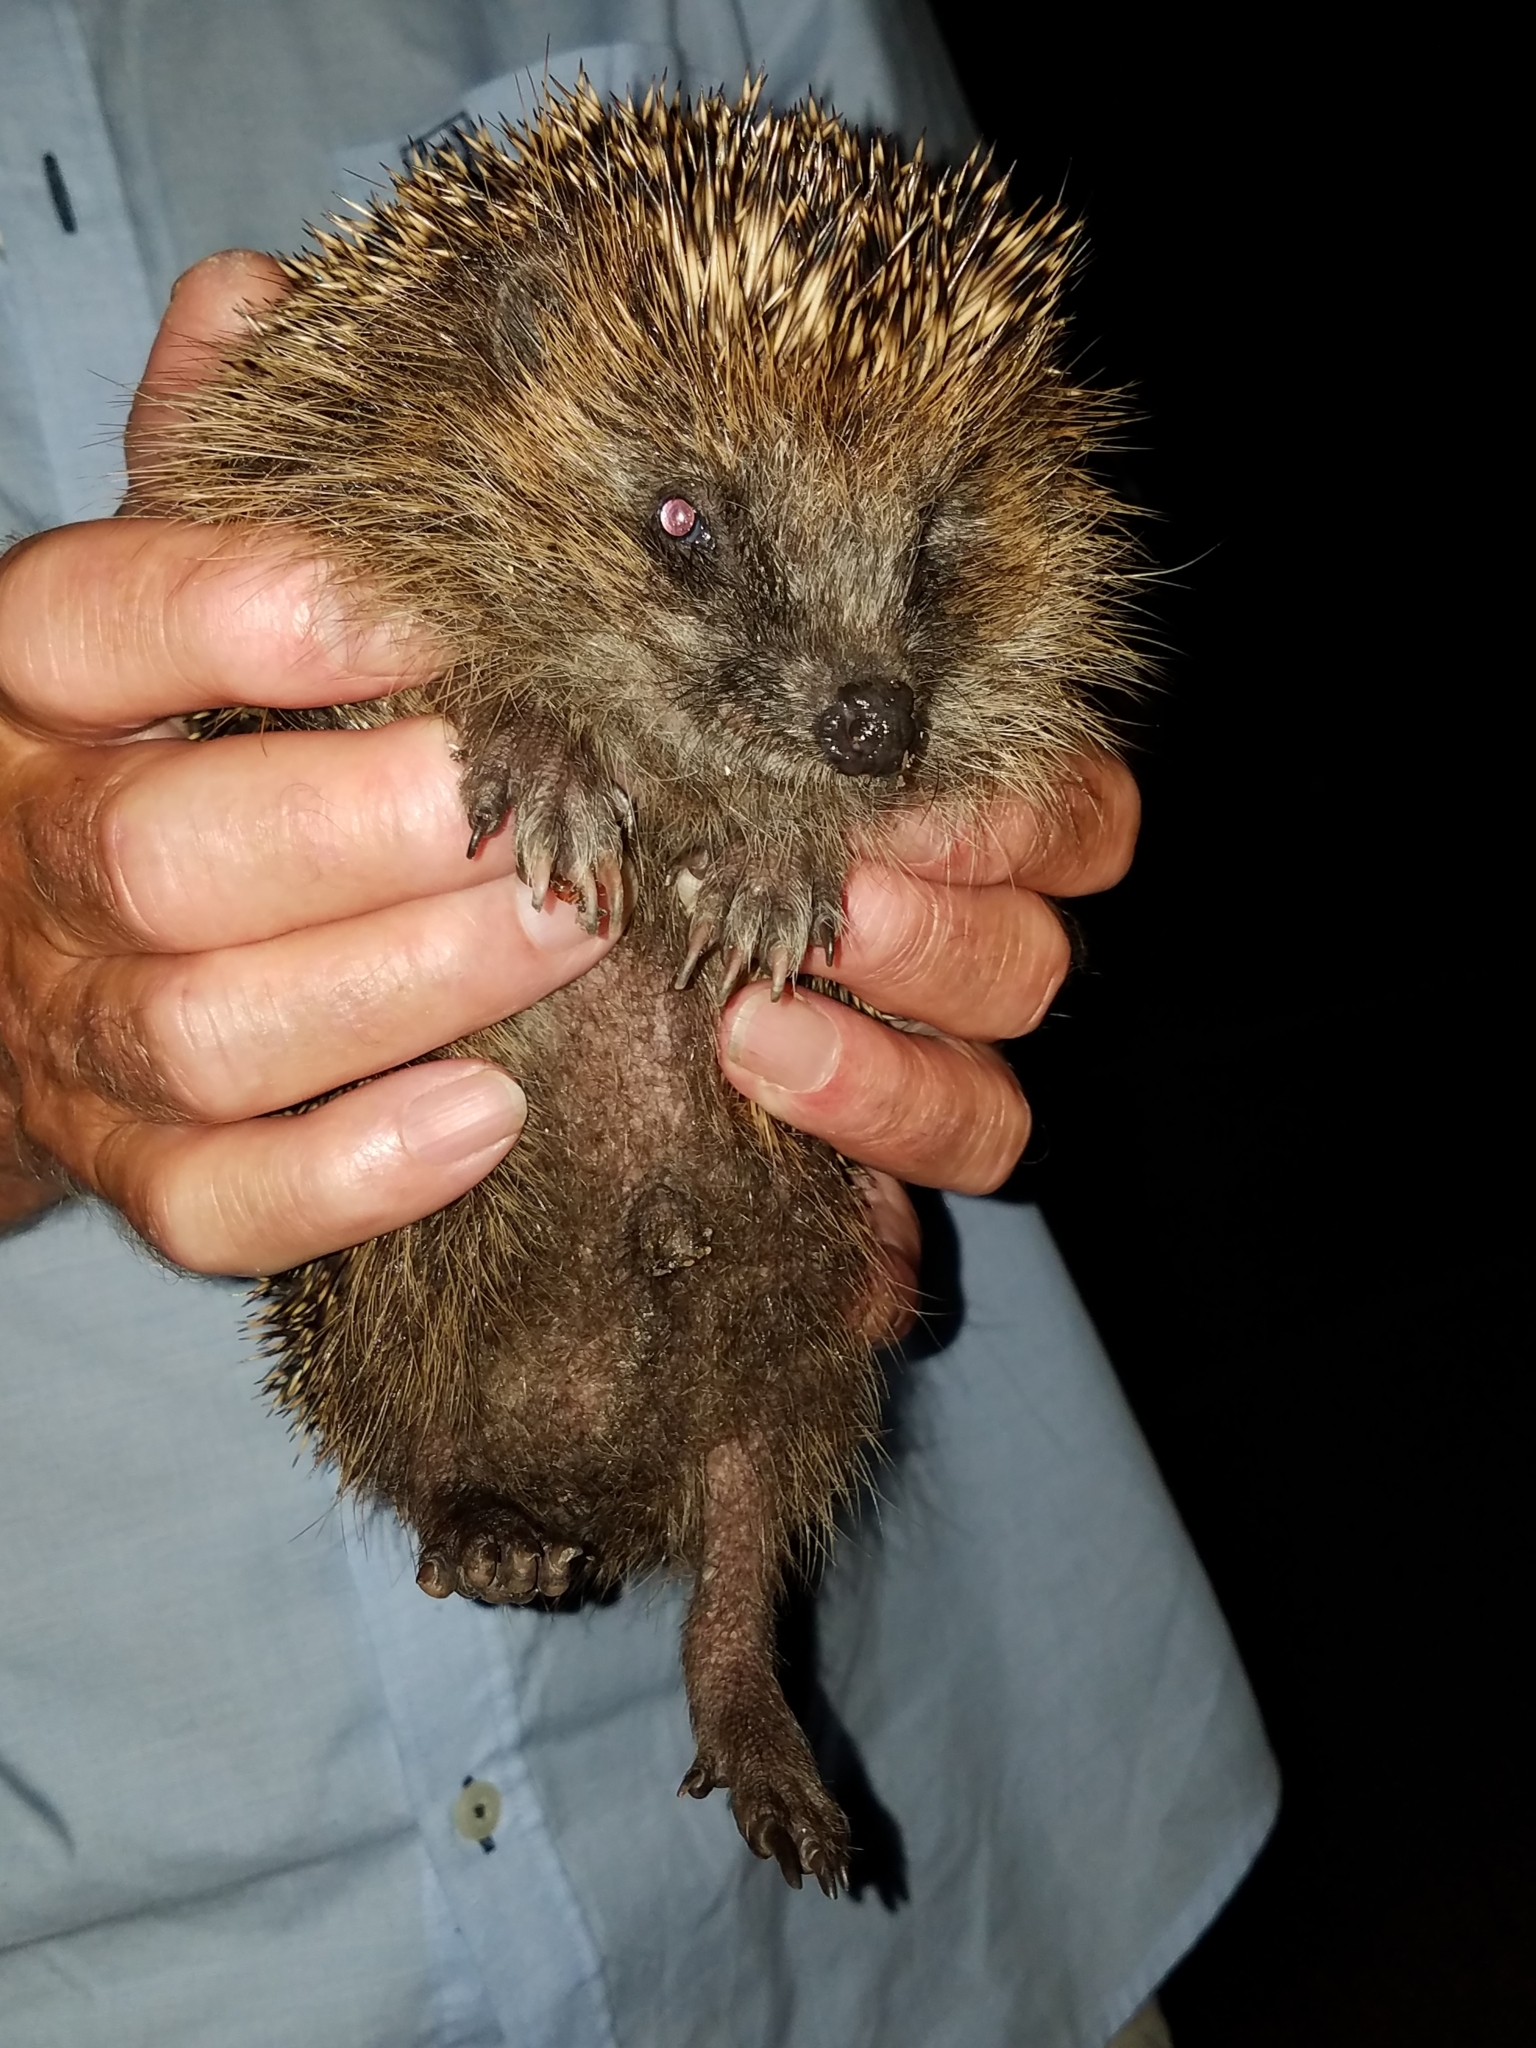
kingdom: Animalia
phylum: Chordata
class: Mammalia
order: Erinaceomorpha
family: Erinaceidae
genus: Erinaceus
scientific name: Erinaceus europaeus
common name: West european hedgehog
